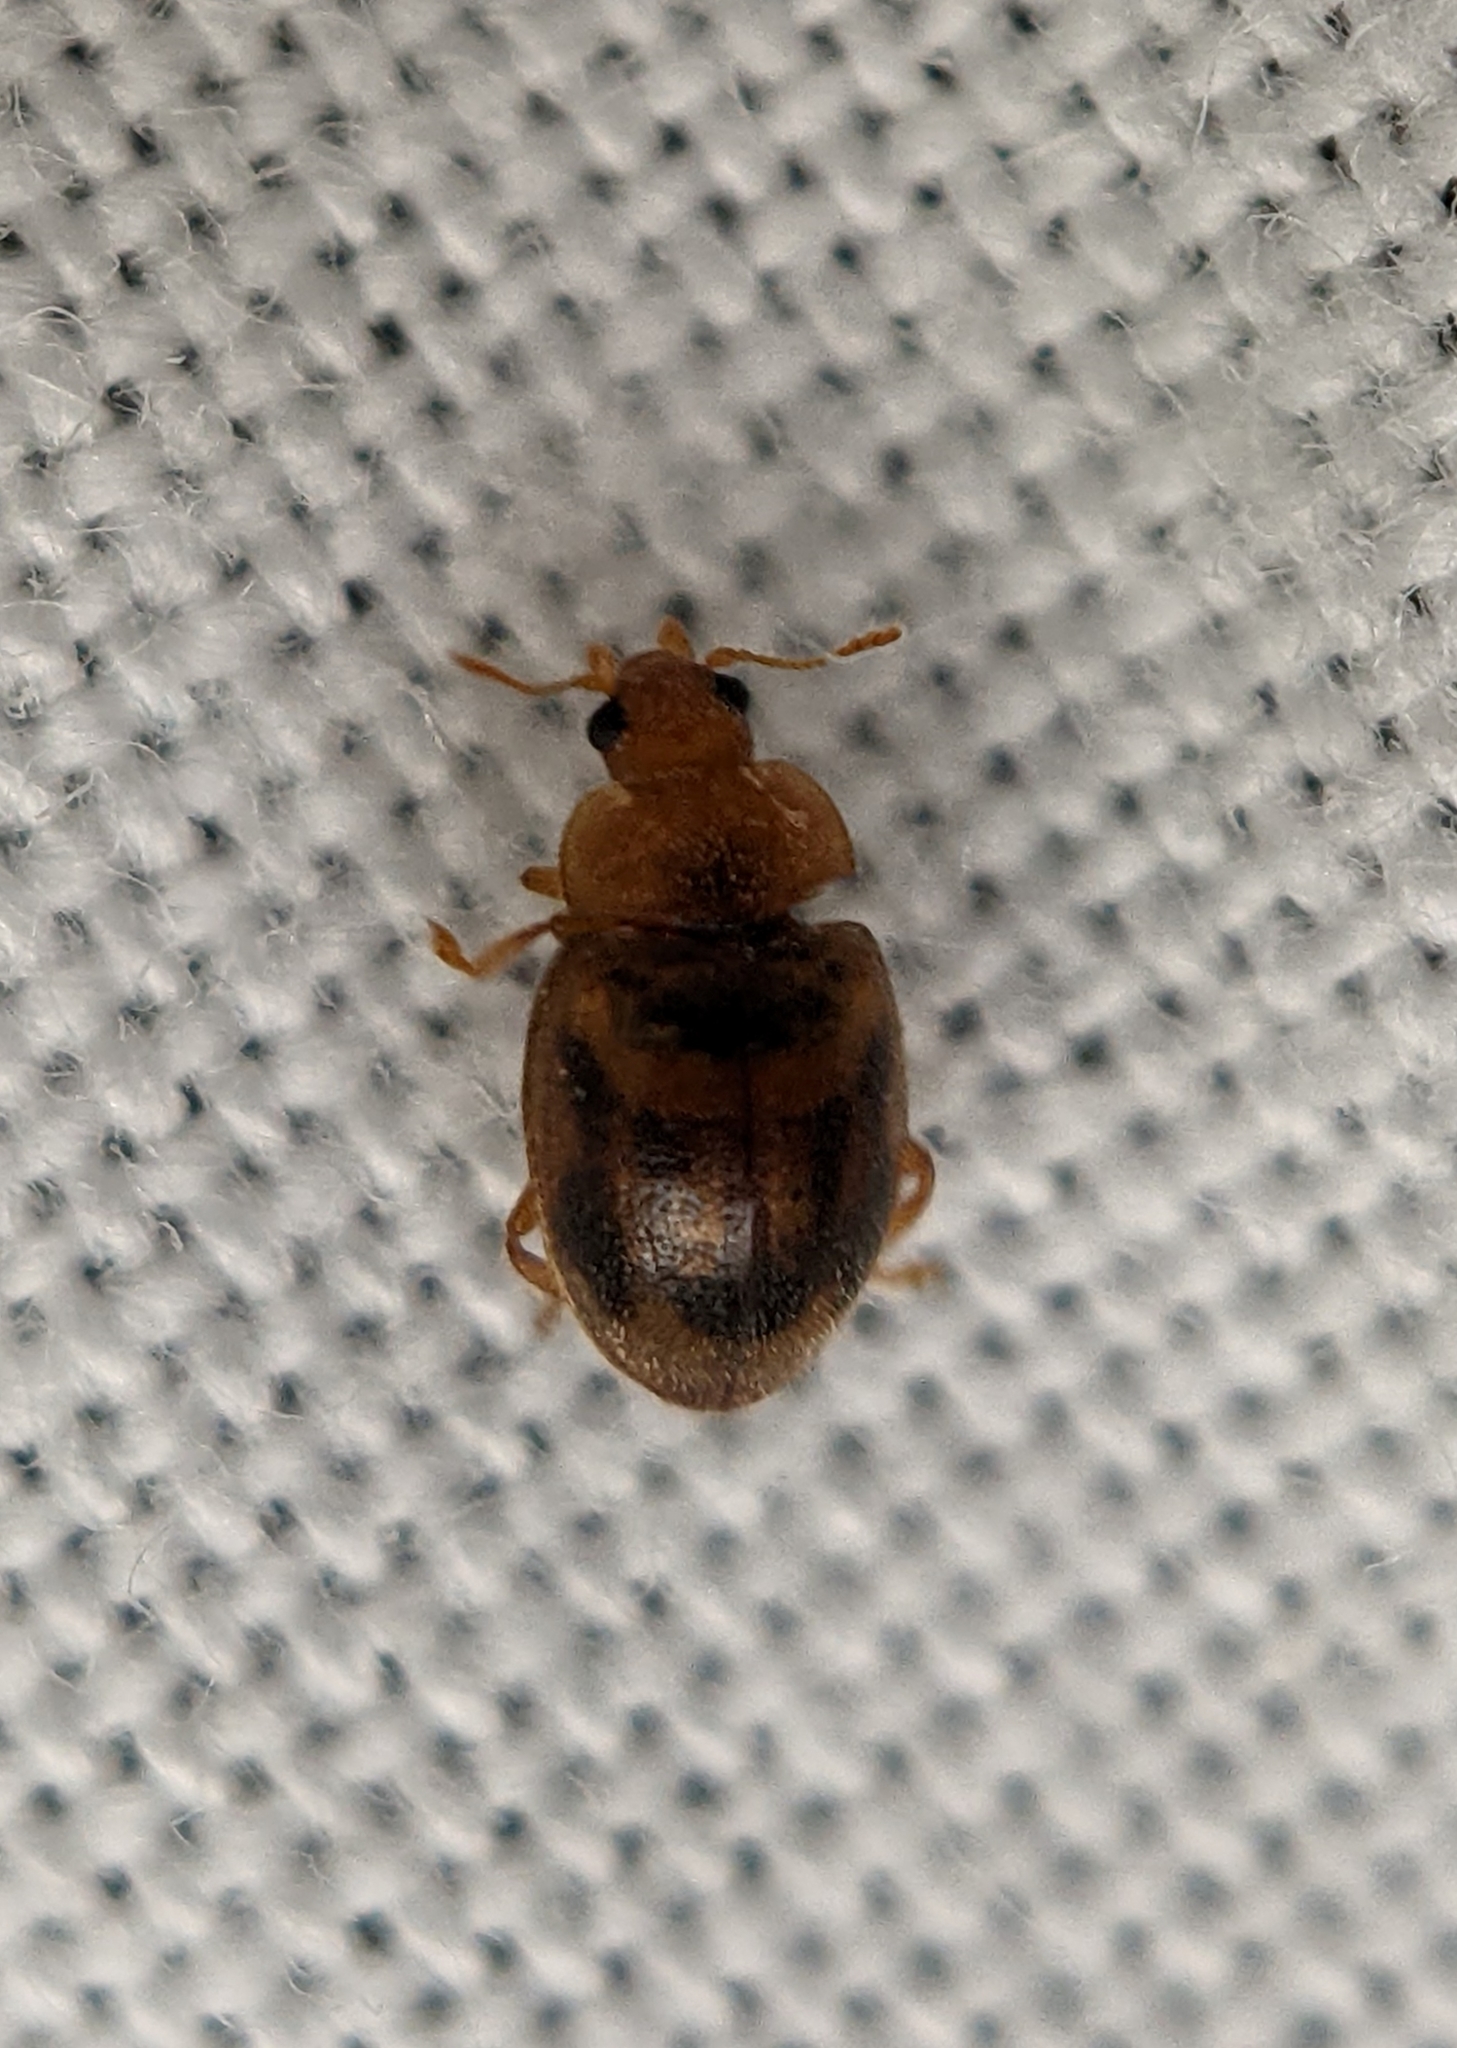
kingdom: Animalia
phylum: Arthropoda
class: Insecta
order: Coleoptera
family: Scraptiidae
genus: Anaspis
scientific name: Anaspis maculata
